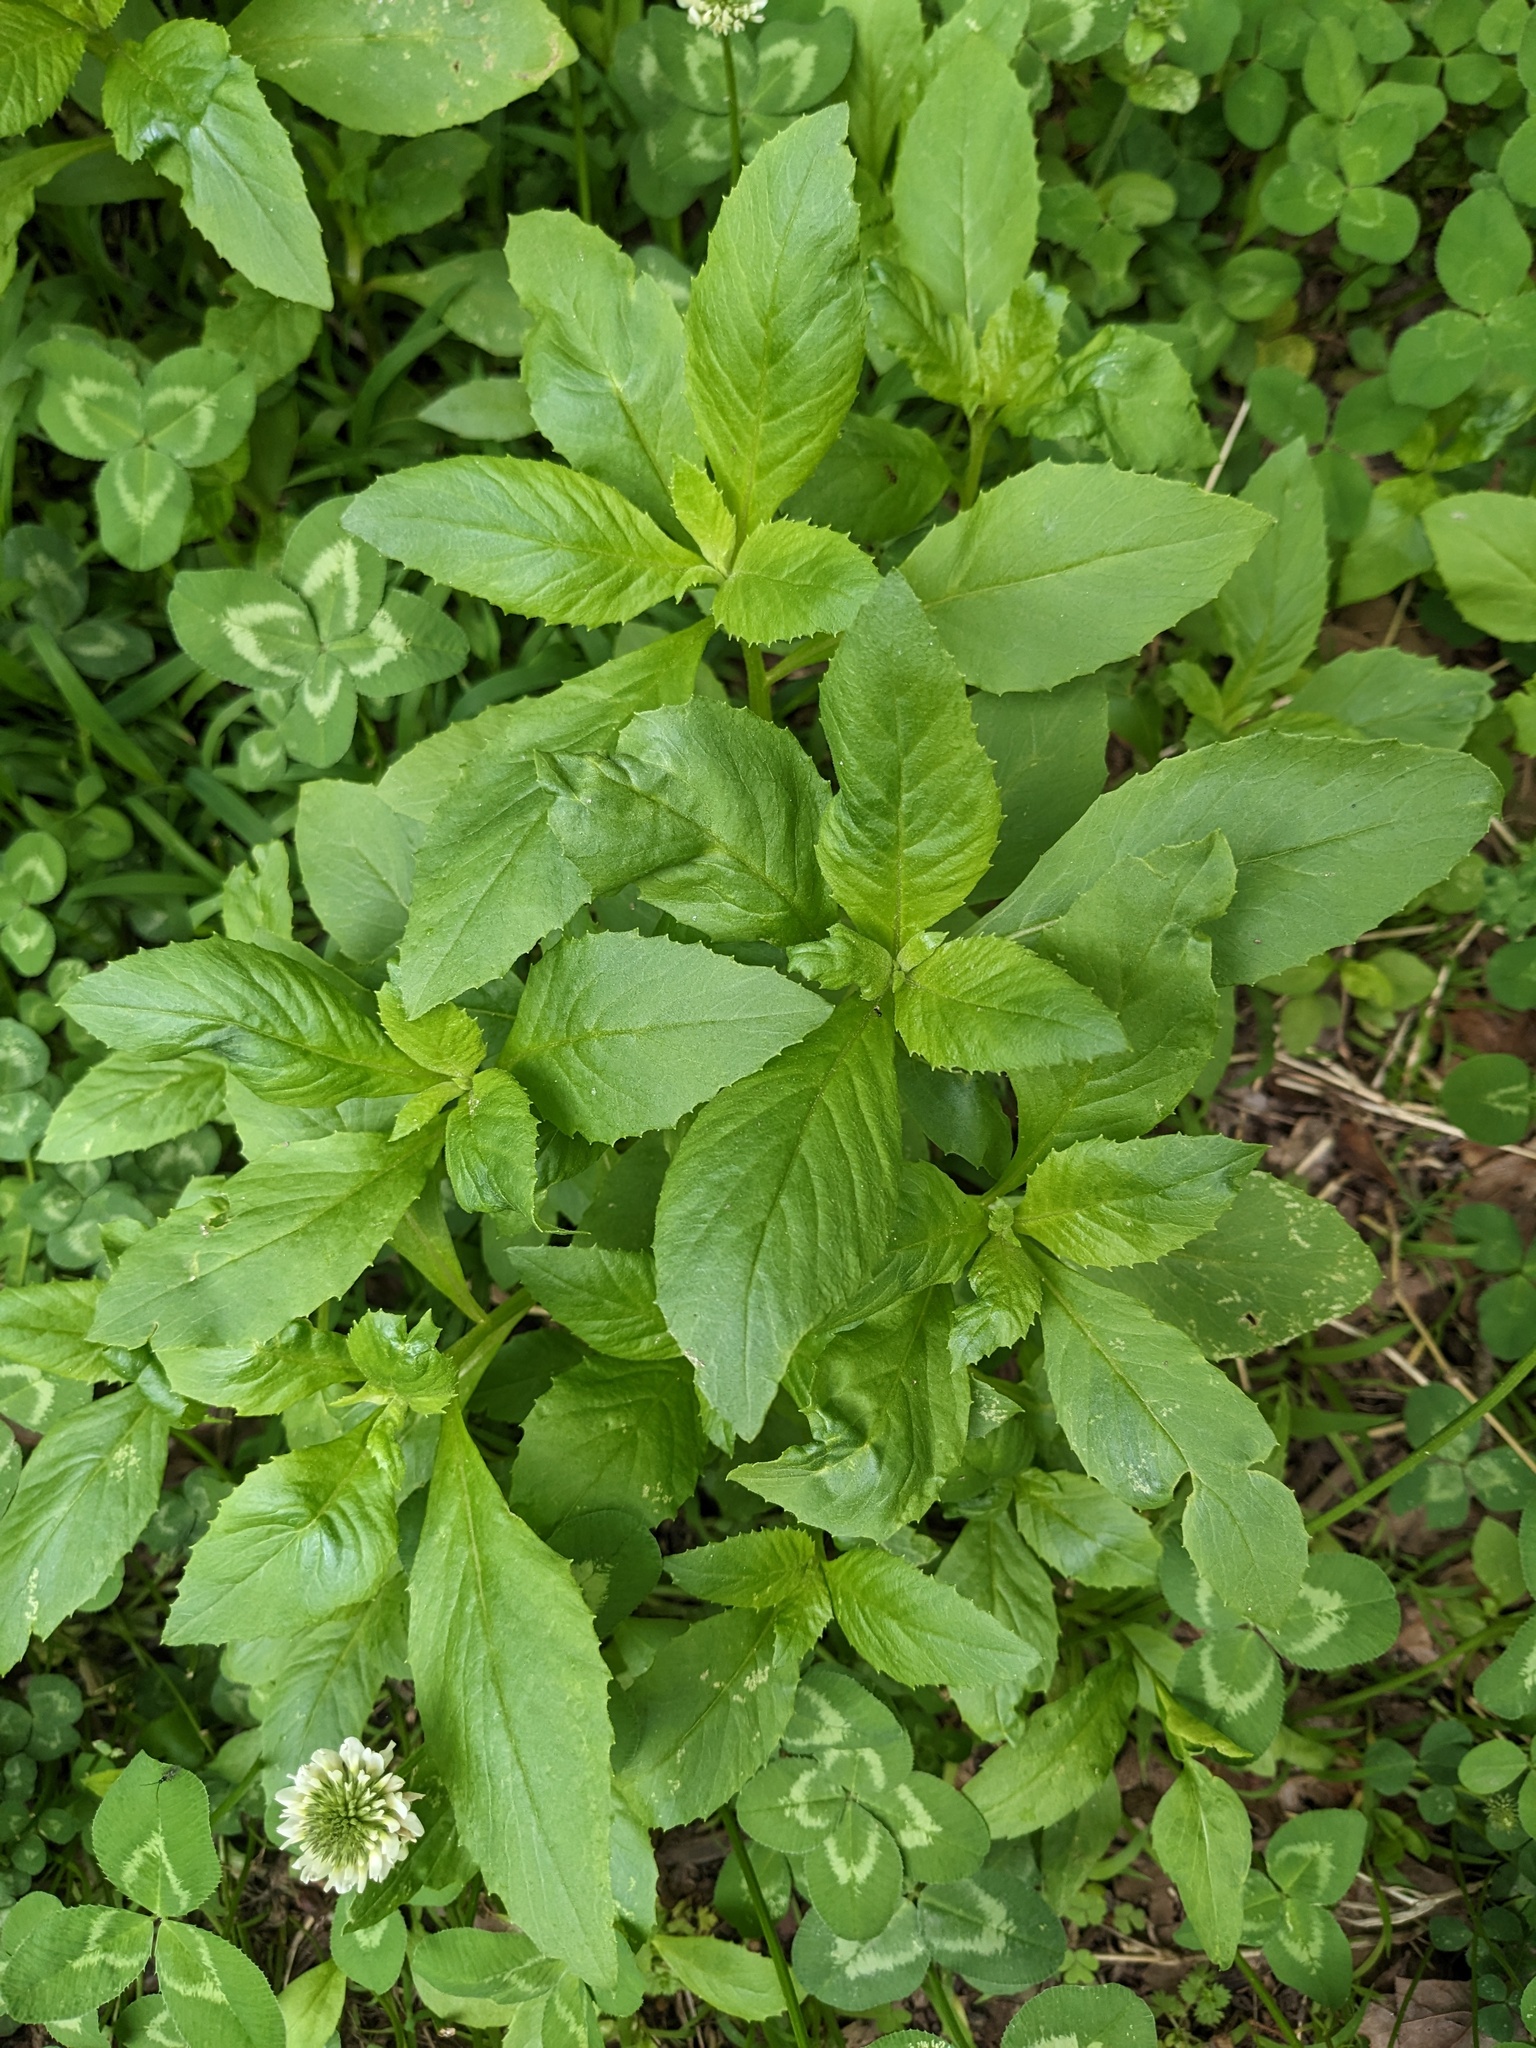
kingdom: Plantae
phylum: Tracheophyta
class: Magnoliopsida
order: Asterales
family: Asteraceae
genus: Erechtites
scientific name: Erechtites hieraciifolius
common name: American burnweed
